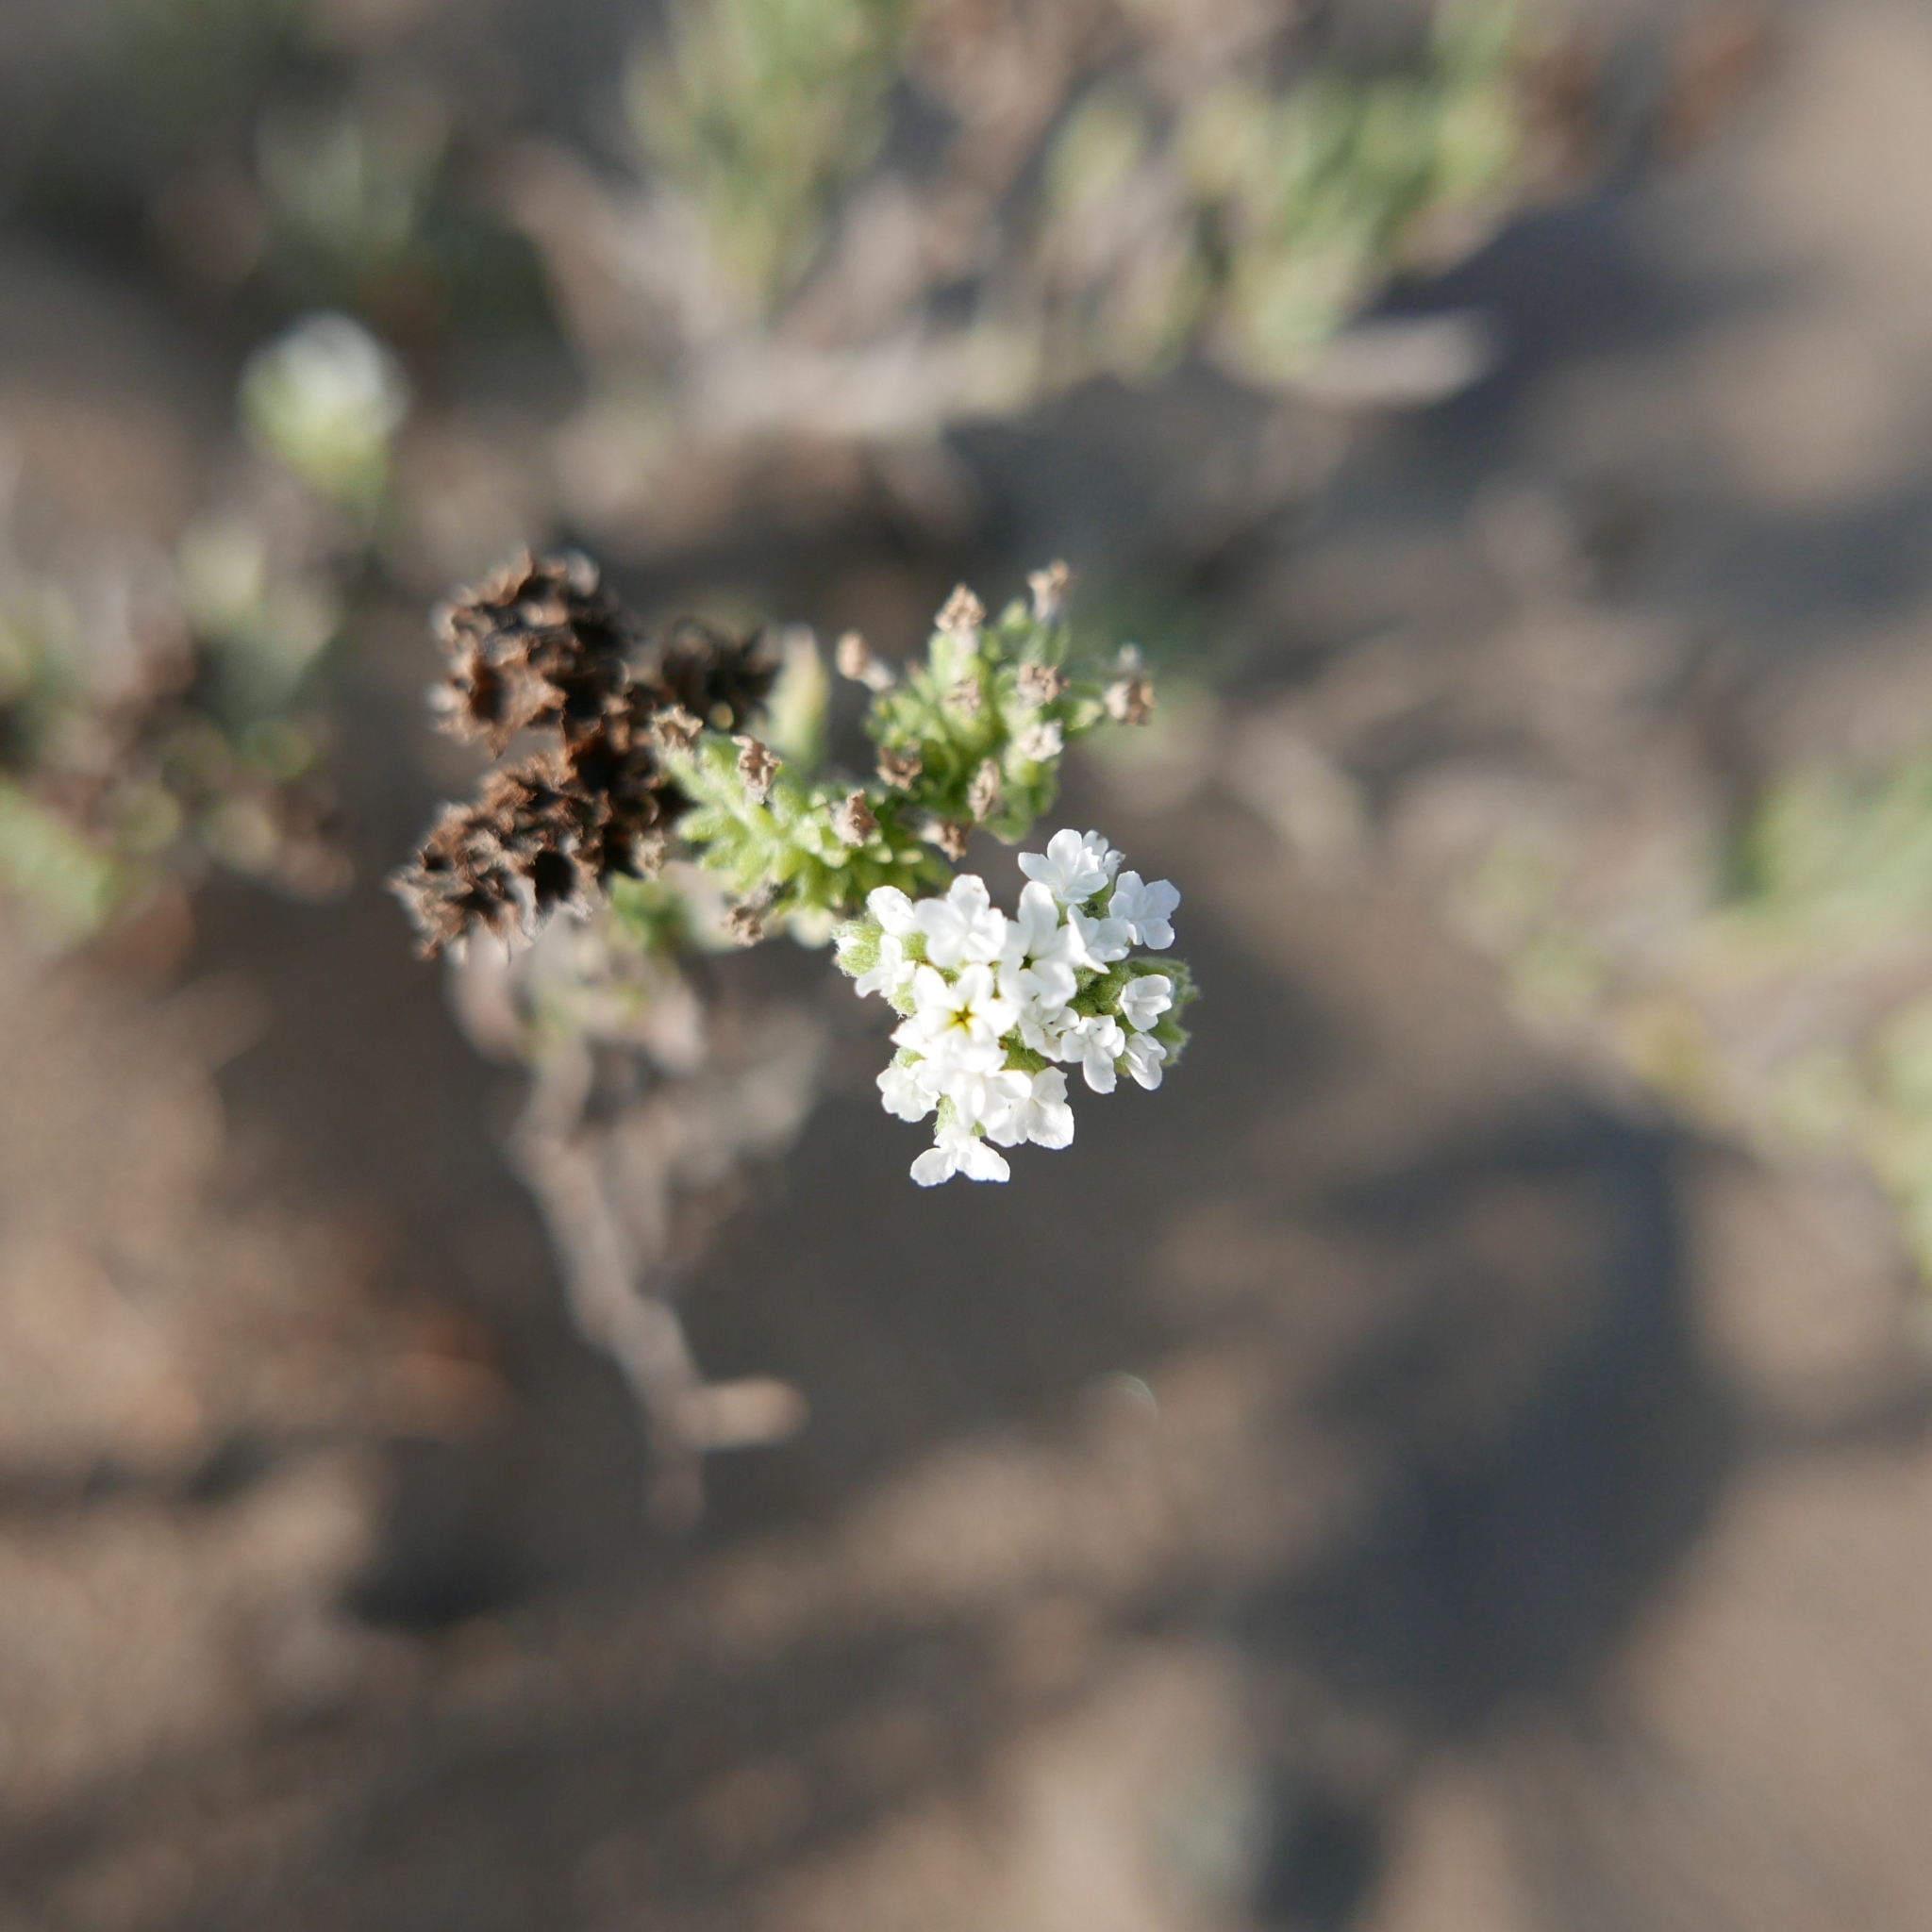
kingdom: Plantae
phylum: Tracheophyta
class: Magnoliopsida
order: Boraginales
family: Heliotropiaceae
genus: Heliotropium
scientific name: Heliotropium ramosissimum
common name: Wavy heliotrope
